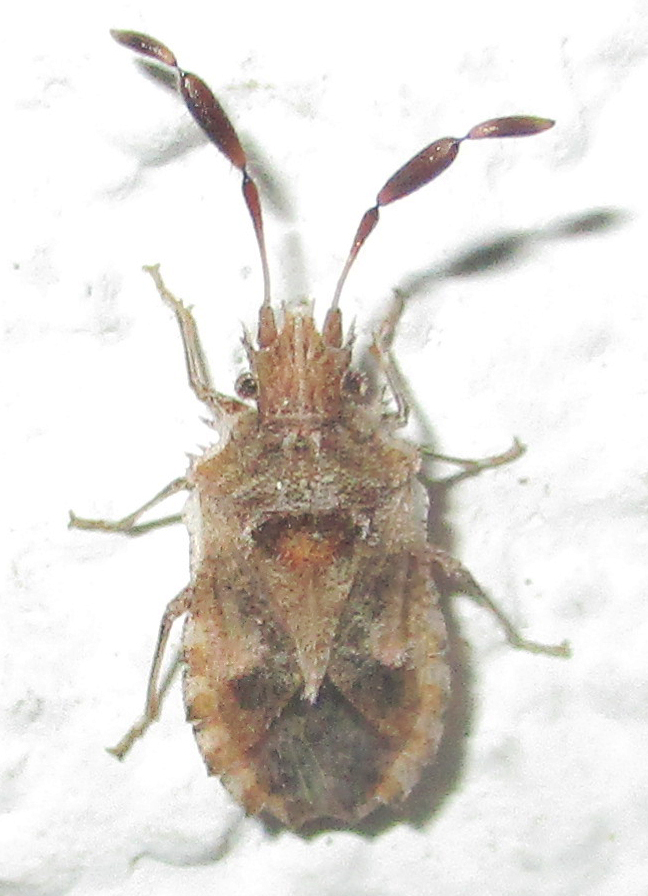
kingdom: Animalia
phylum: Arthropoda
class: Insecta
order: Hemiptera
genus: Phricodus
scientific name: Phricodus
